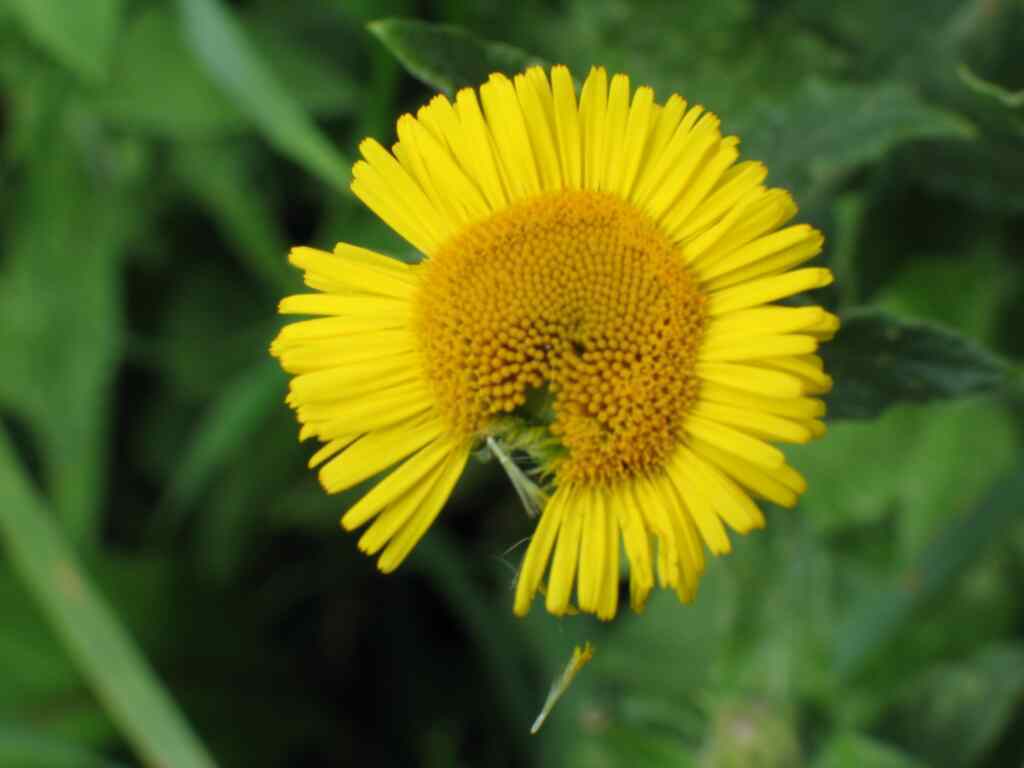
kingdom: Plantae
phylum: Tracheophyta
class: Magnoliopsida
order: Asterales
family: Asteraceae
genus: Pulicaria
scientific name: Pulicaria dysenterica
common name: Common fleabane
